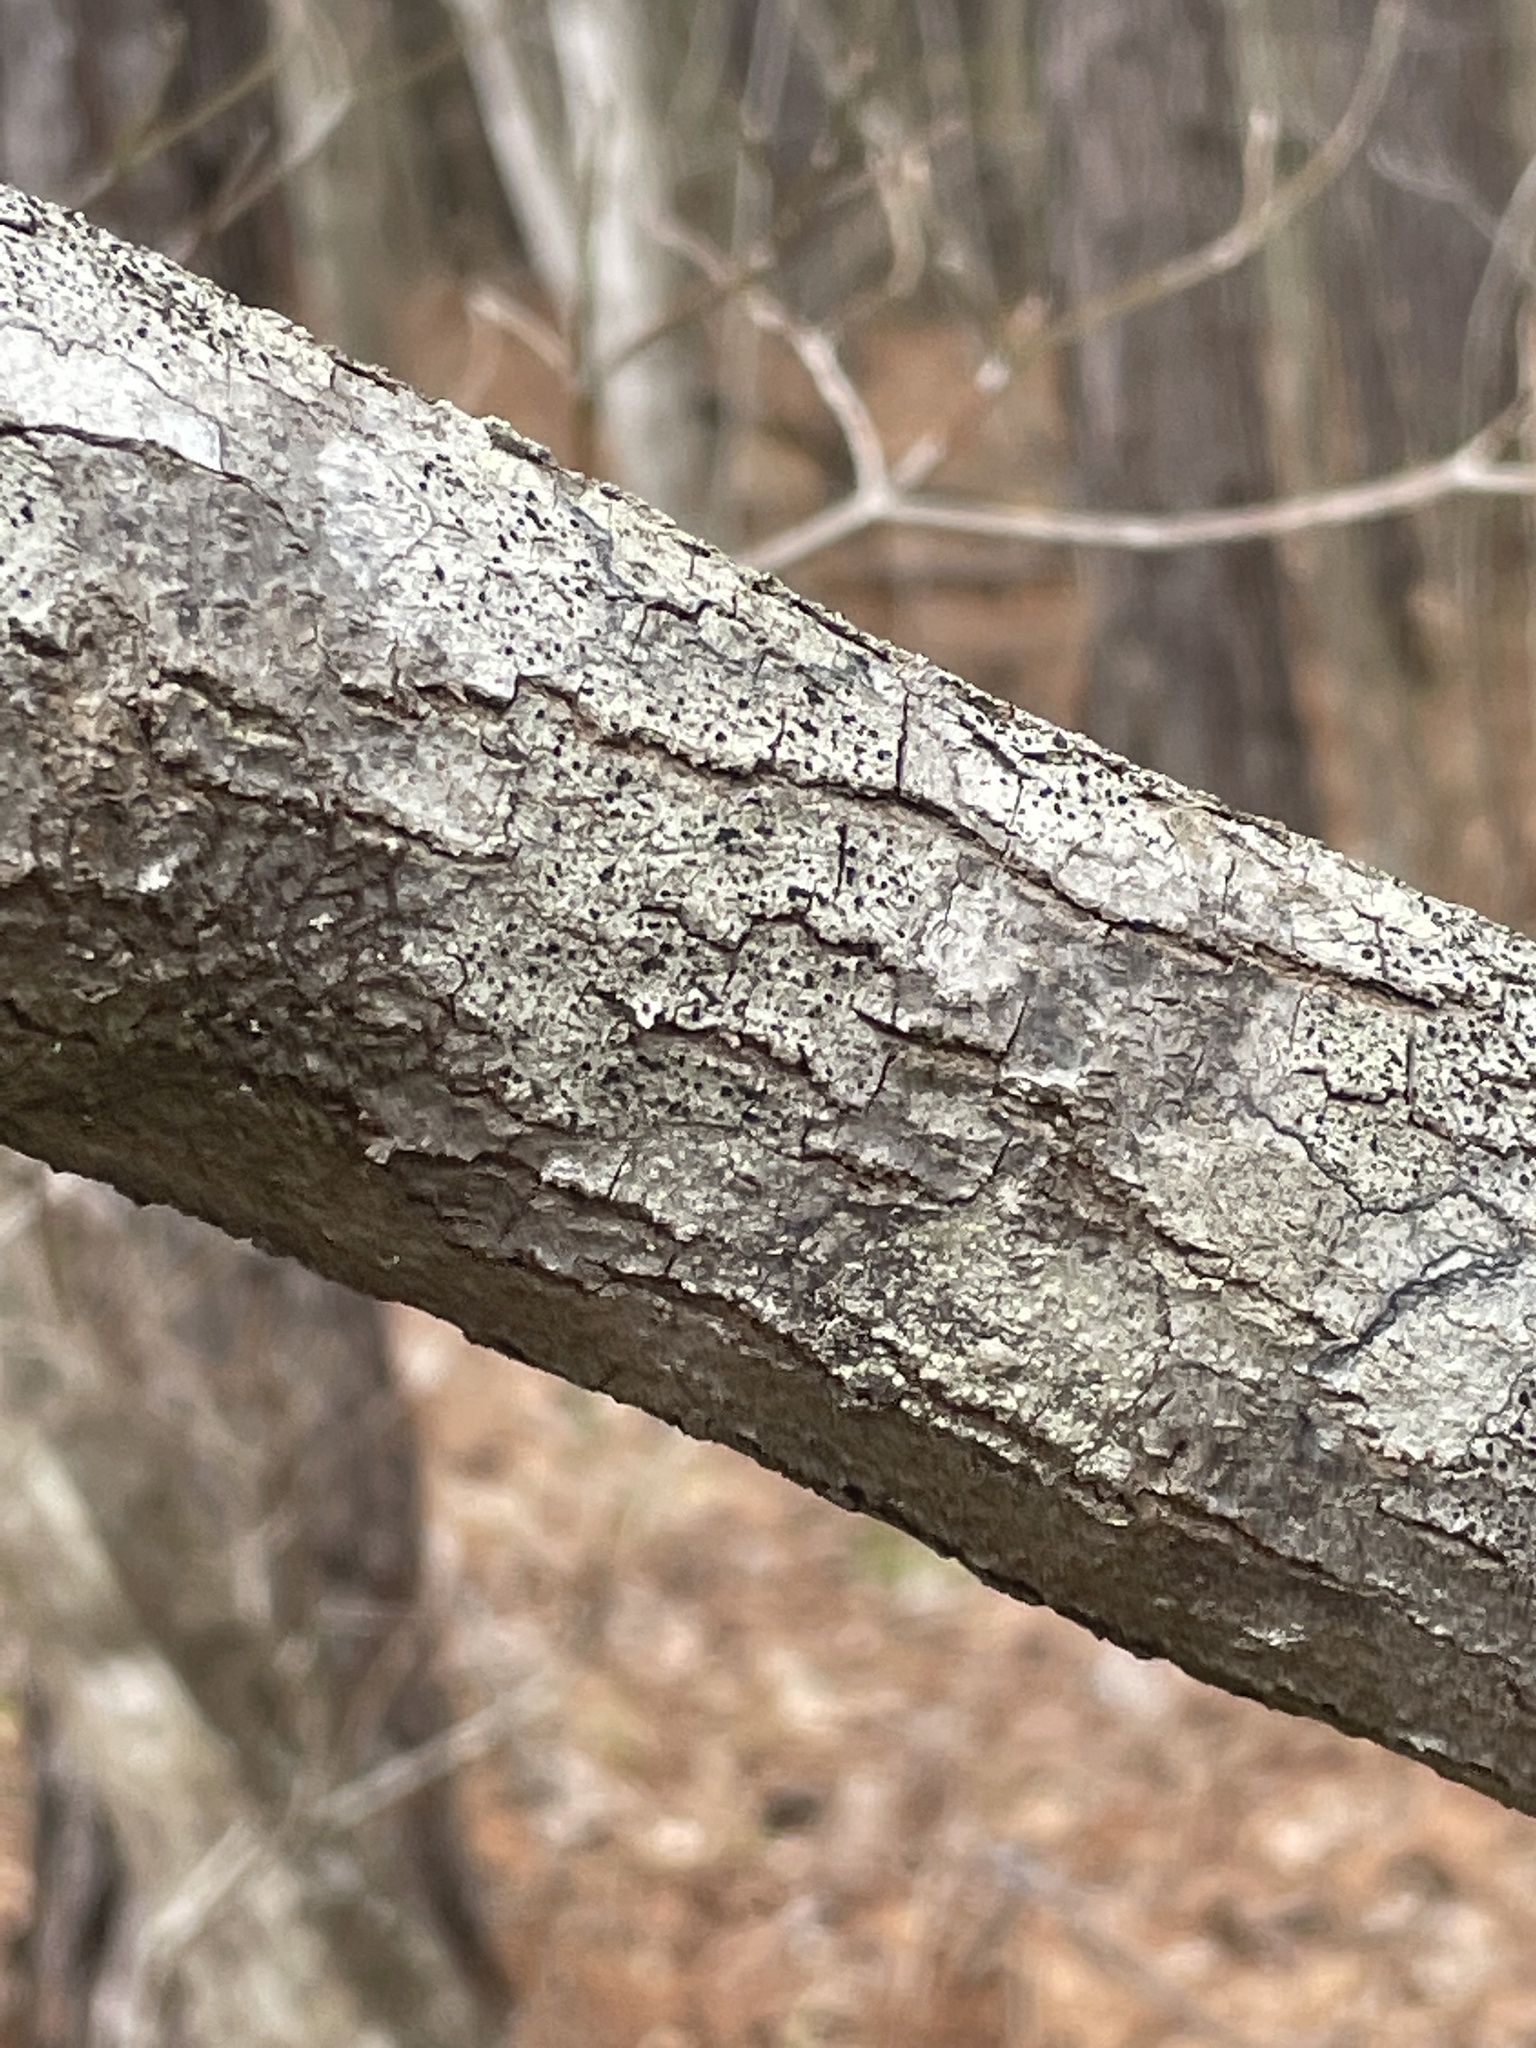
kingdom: Plantae
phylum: Tracheophyta
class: Magnoliopsida
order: Fabales
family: Fabaceae
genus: Cercis
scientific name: Cercis canadensis
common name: Eastern redbud
